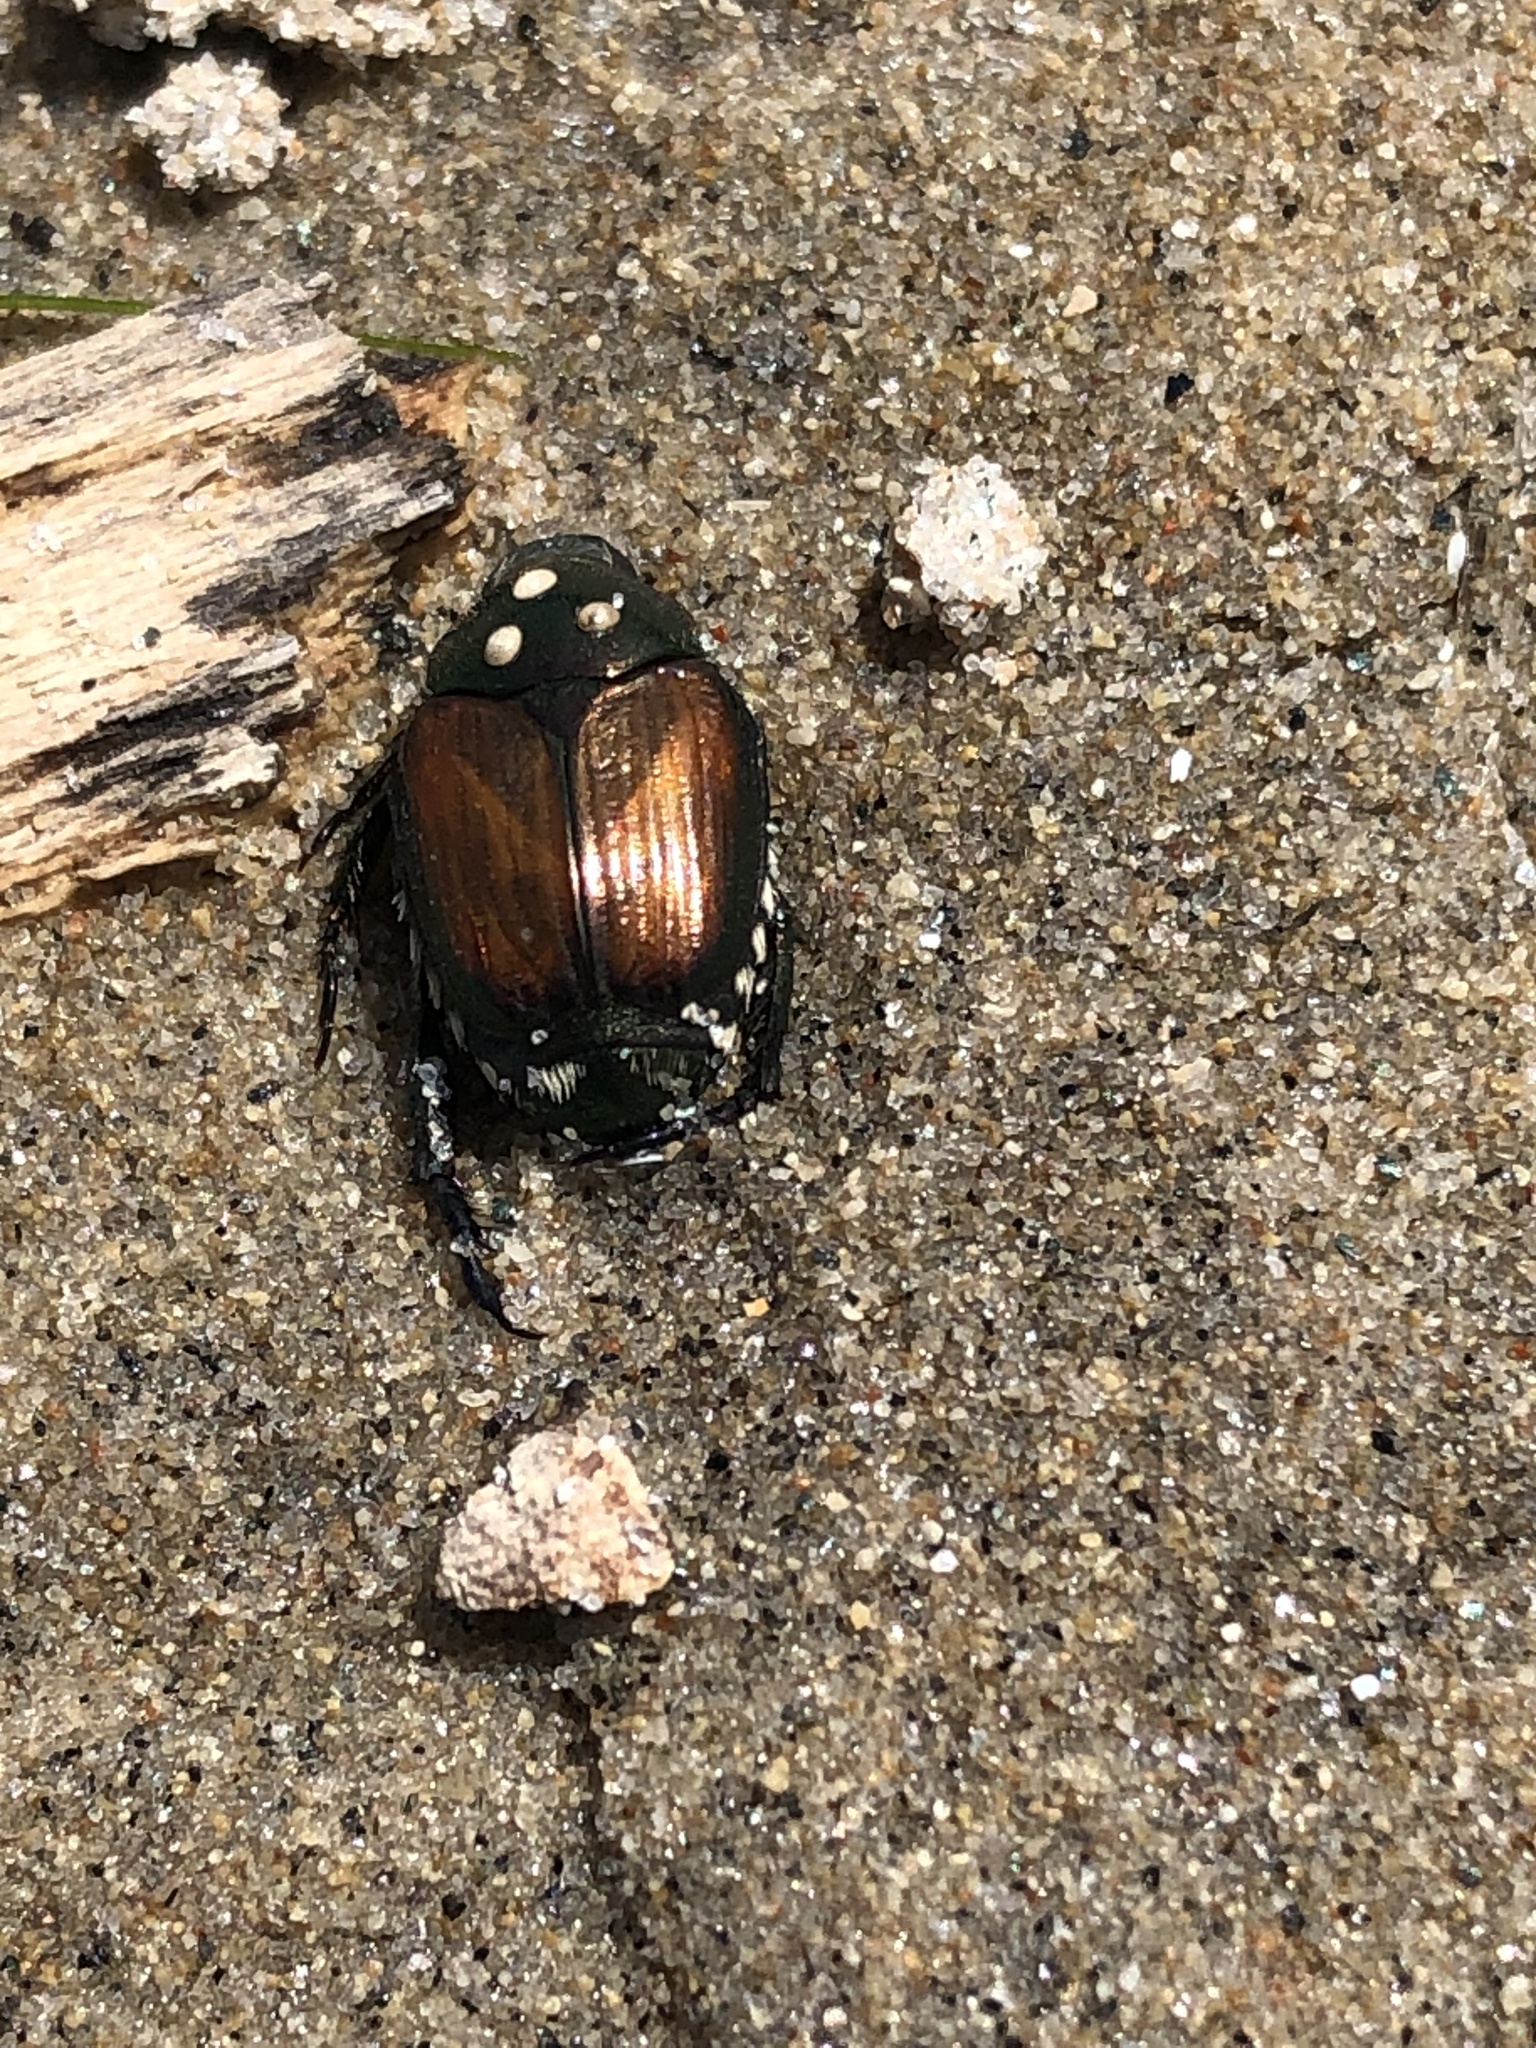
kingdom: Animalia
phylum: Arthropoda
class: Insecta
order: Coleoptera
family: Scarabaeidae
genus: Popillia
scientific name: Popillia japonica
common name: Japanese beetle
